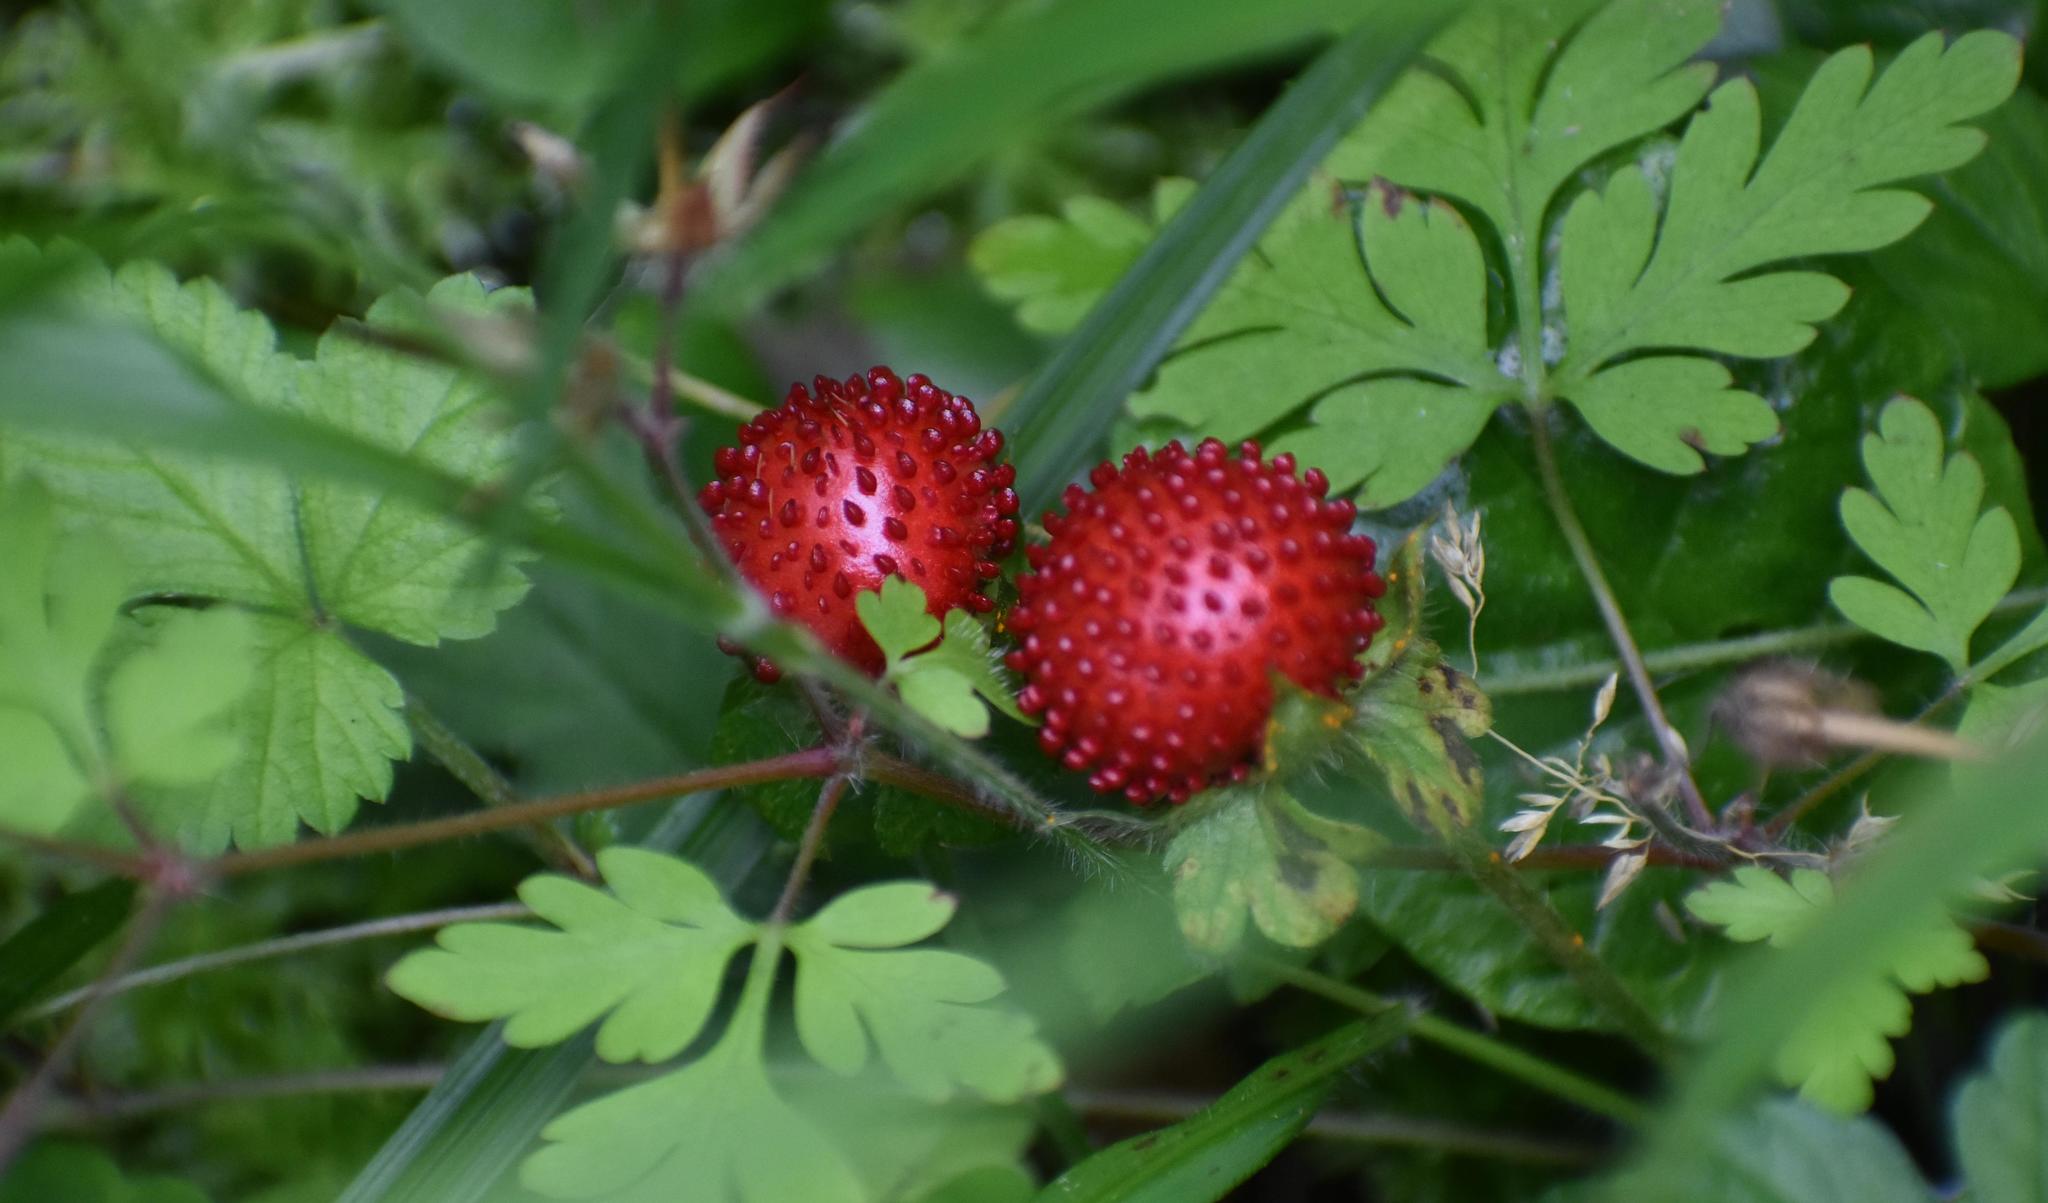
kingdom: Plantae
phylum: Tracheophyta
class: Magnoliopsida
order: Rosales
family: Rosaceae
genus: Potentilla
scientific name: Potentilla indica
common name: Yellow-flowered strawberry
